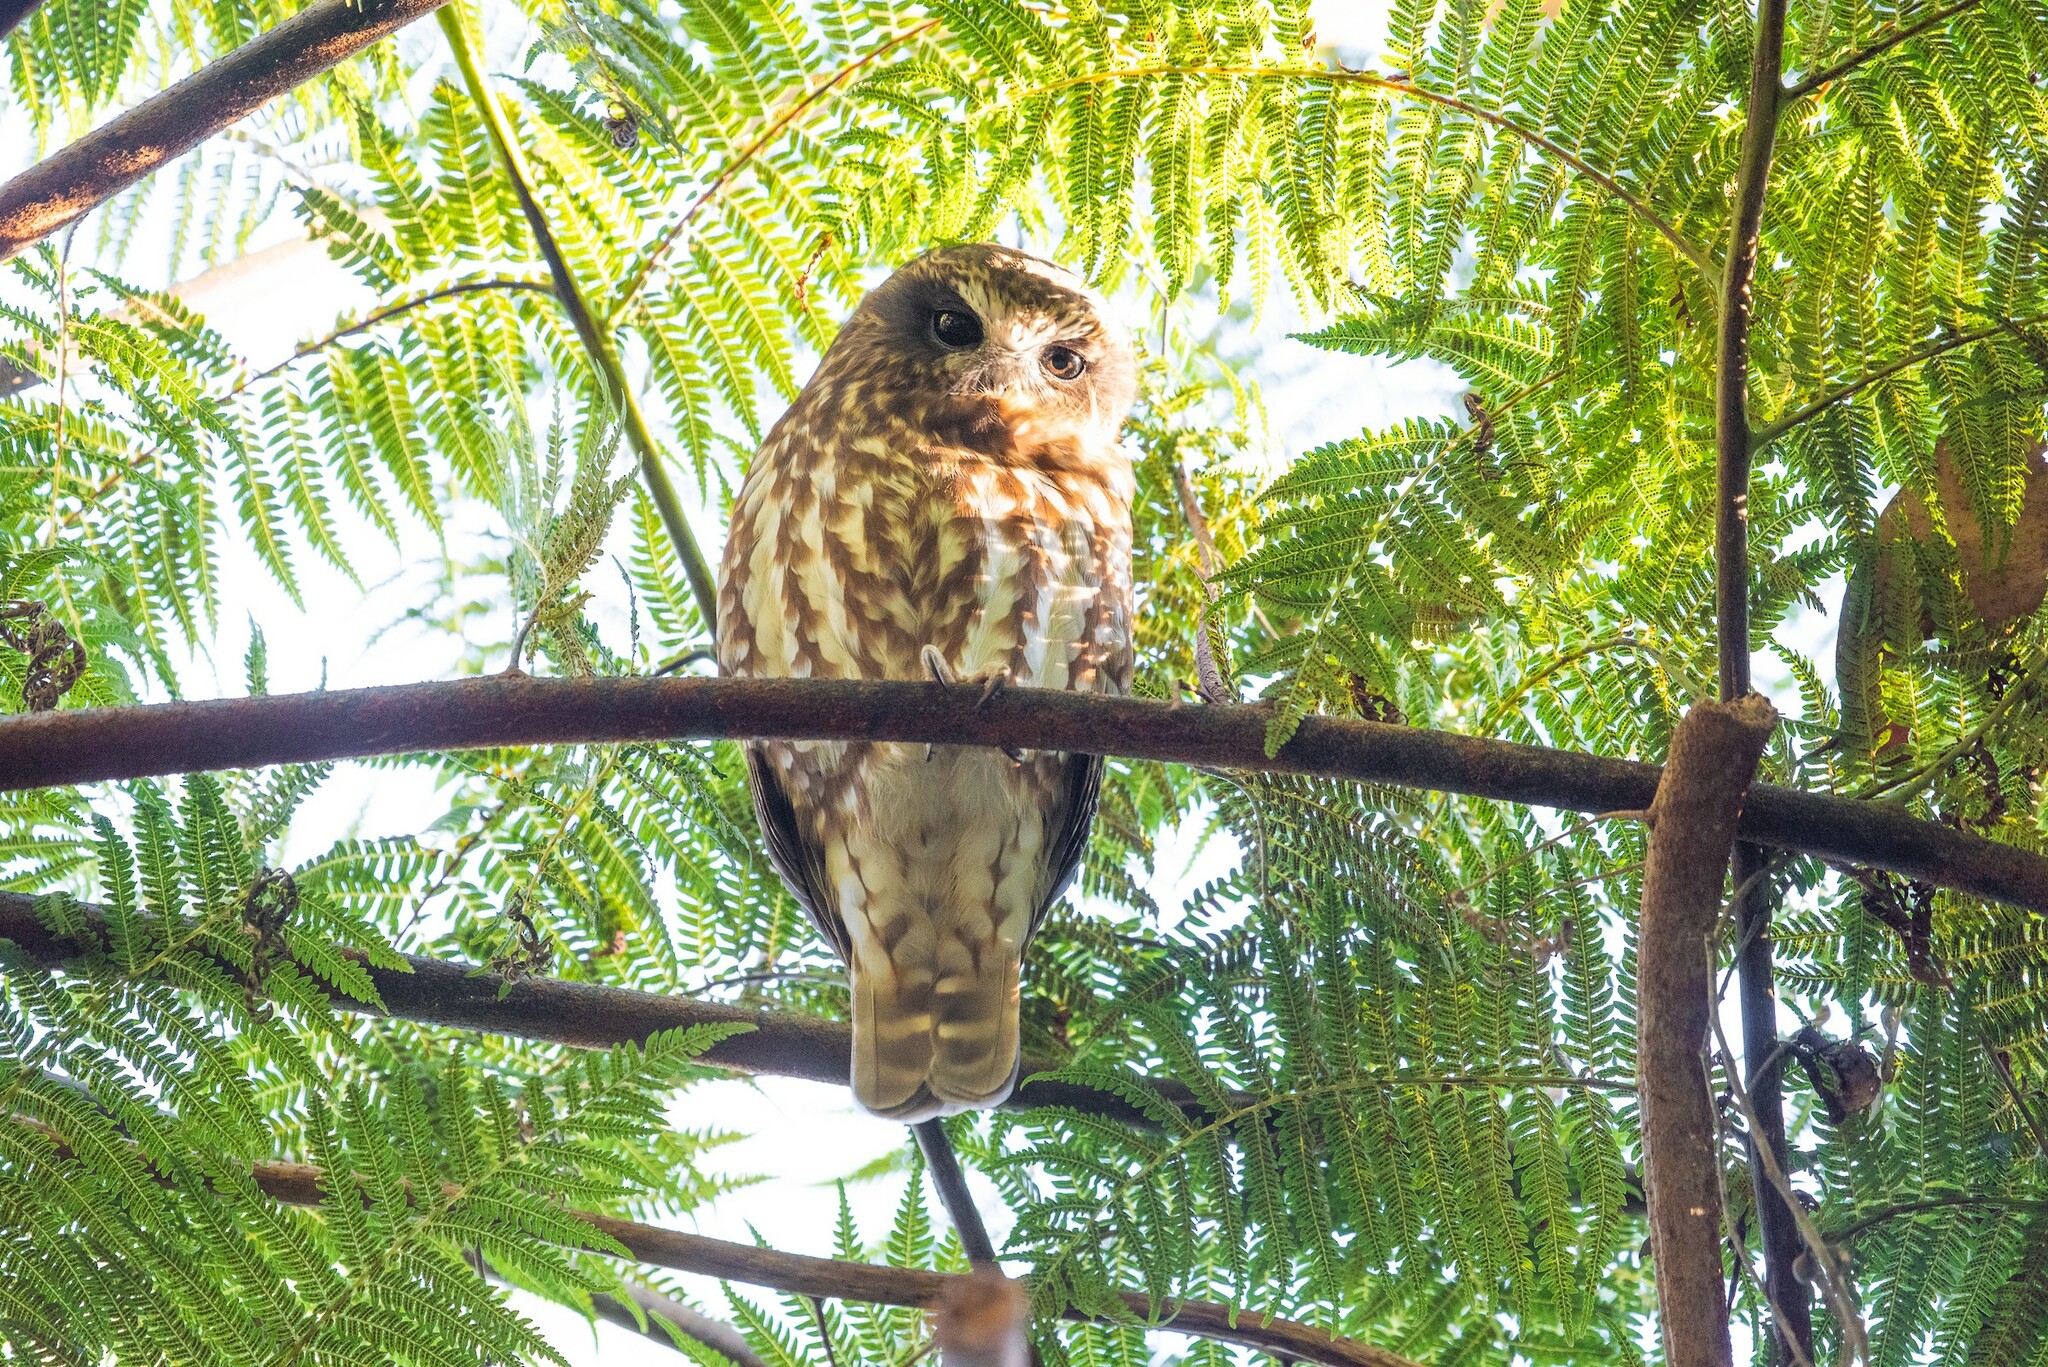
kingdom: Animalia
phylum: Chordata
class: Aves
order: Strigiformes
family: Strigidae
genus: Ninox
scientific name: Ninox boobook
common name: Southern boobook
